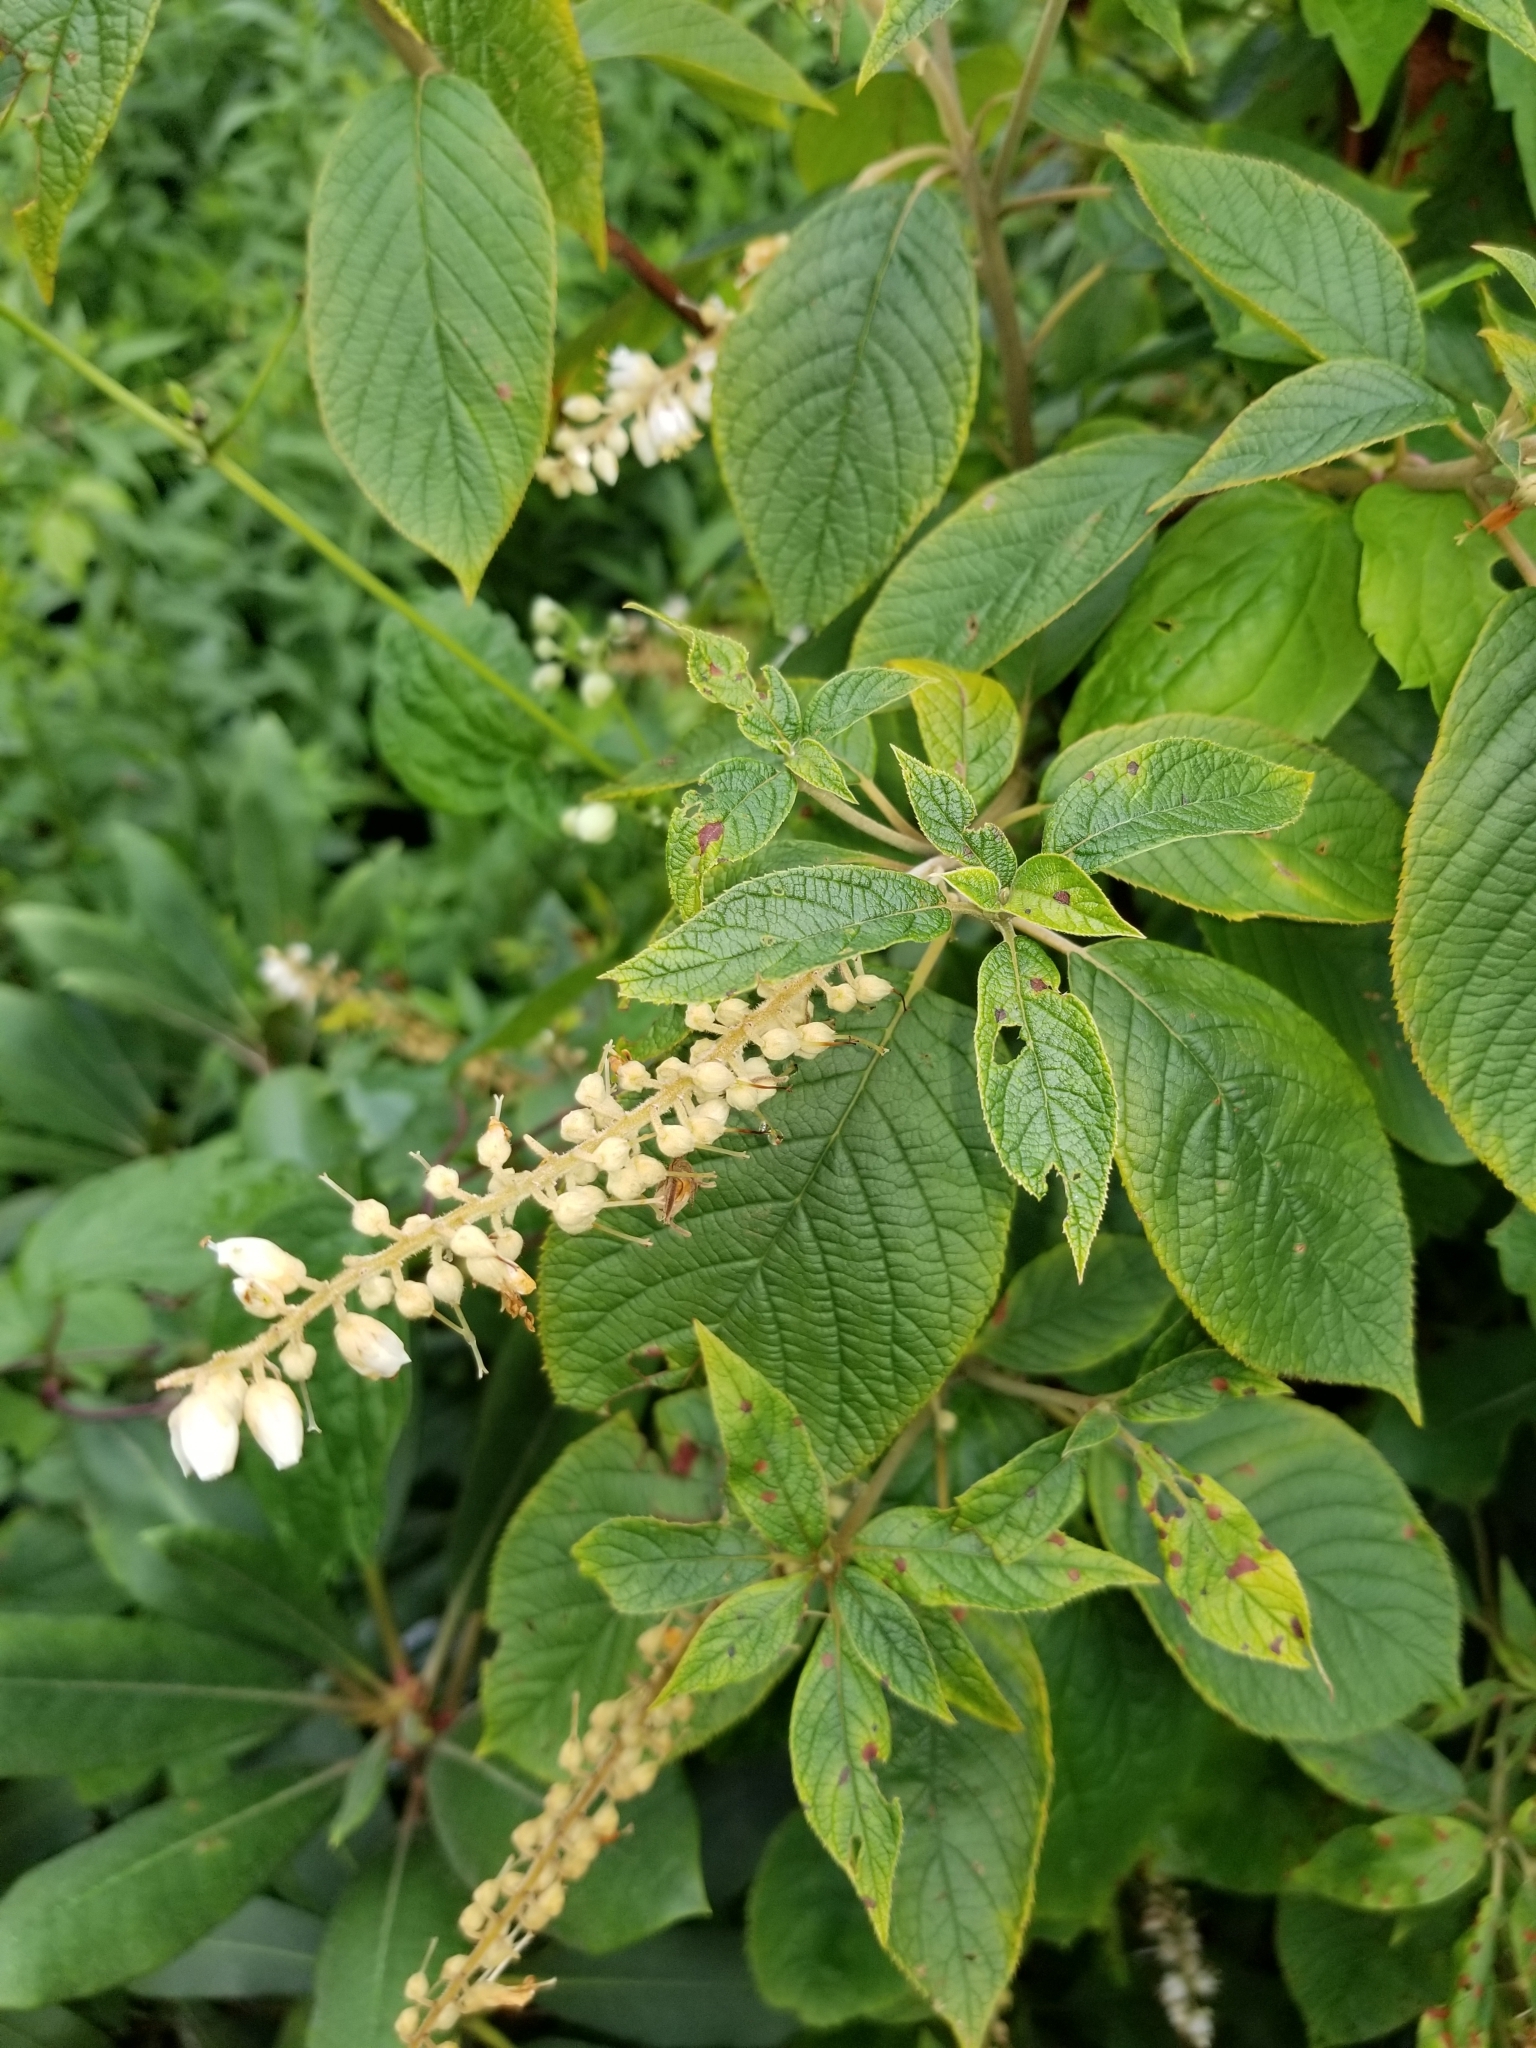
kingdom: Plantae
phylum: Tracheophyta
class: Magnoliopsida
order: Ericales
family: Clethraceae
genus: Clethra
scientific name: Clethra acuminata
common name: Mountain sweet pepperbush
